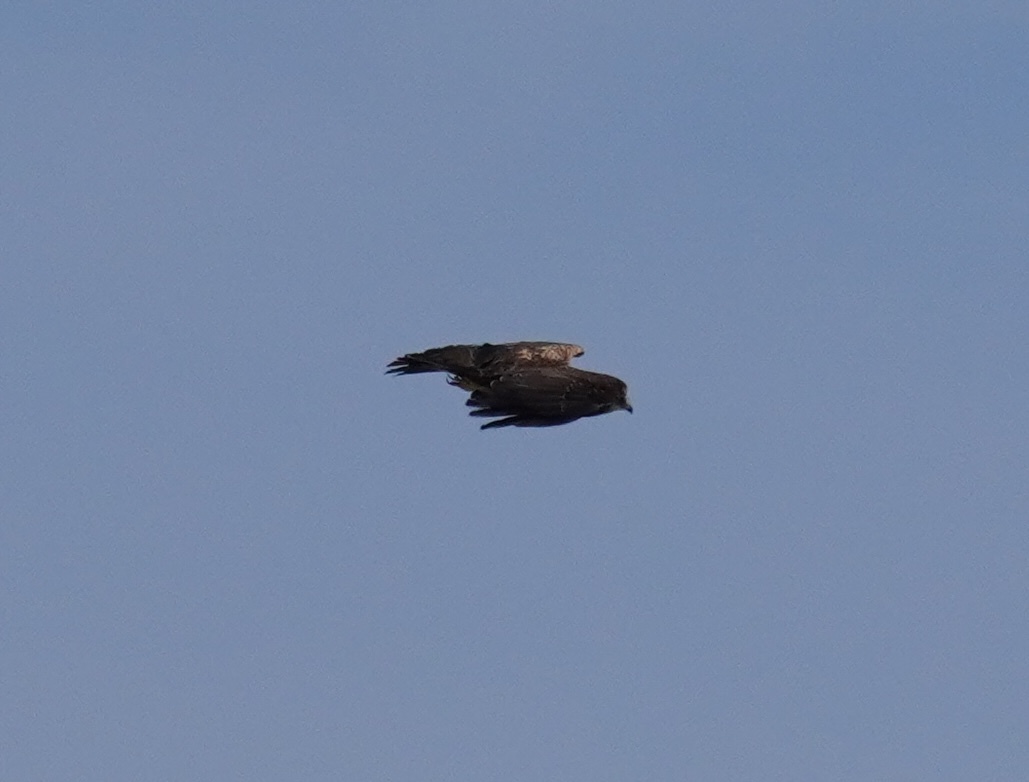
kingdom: Animalia
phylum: Chordata
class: Aves
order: Accipitriformes
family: Accipitridae
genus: Circus
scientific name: Circus ranivorus
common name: African marsh-harrier
